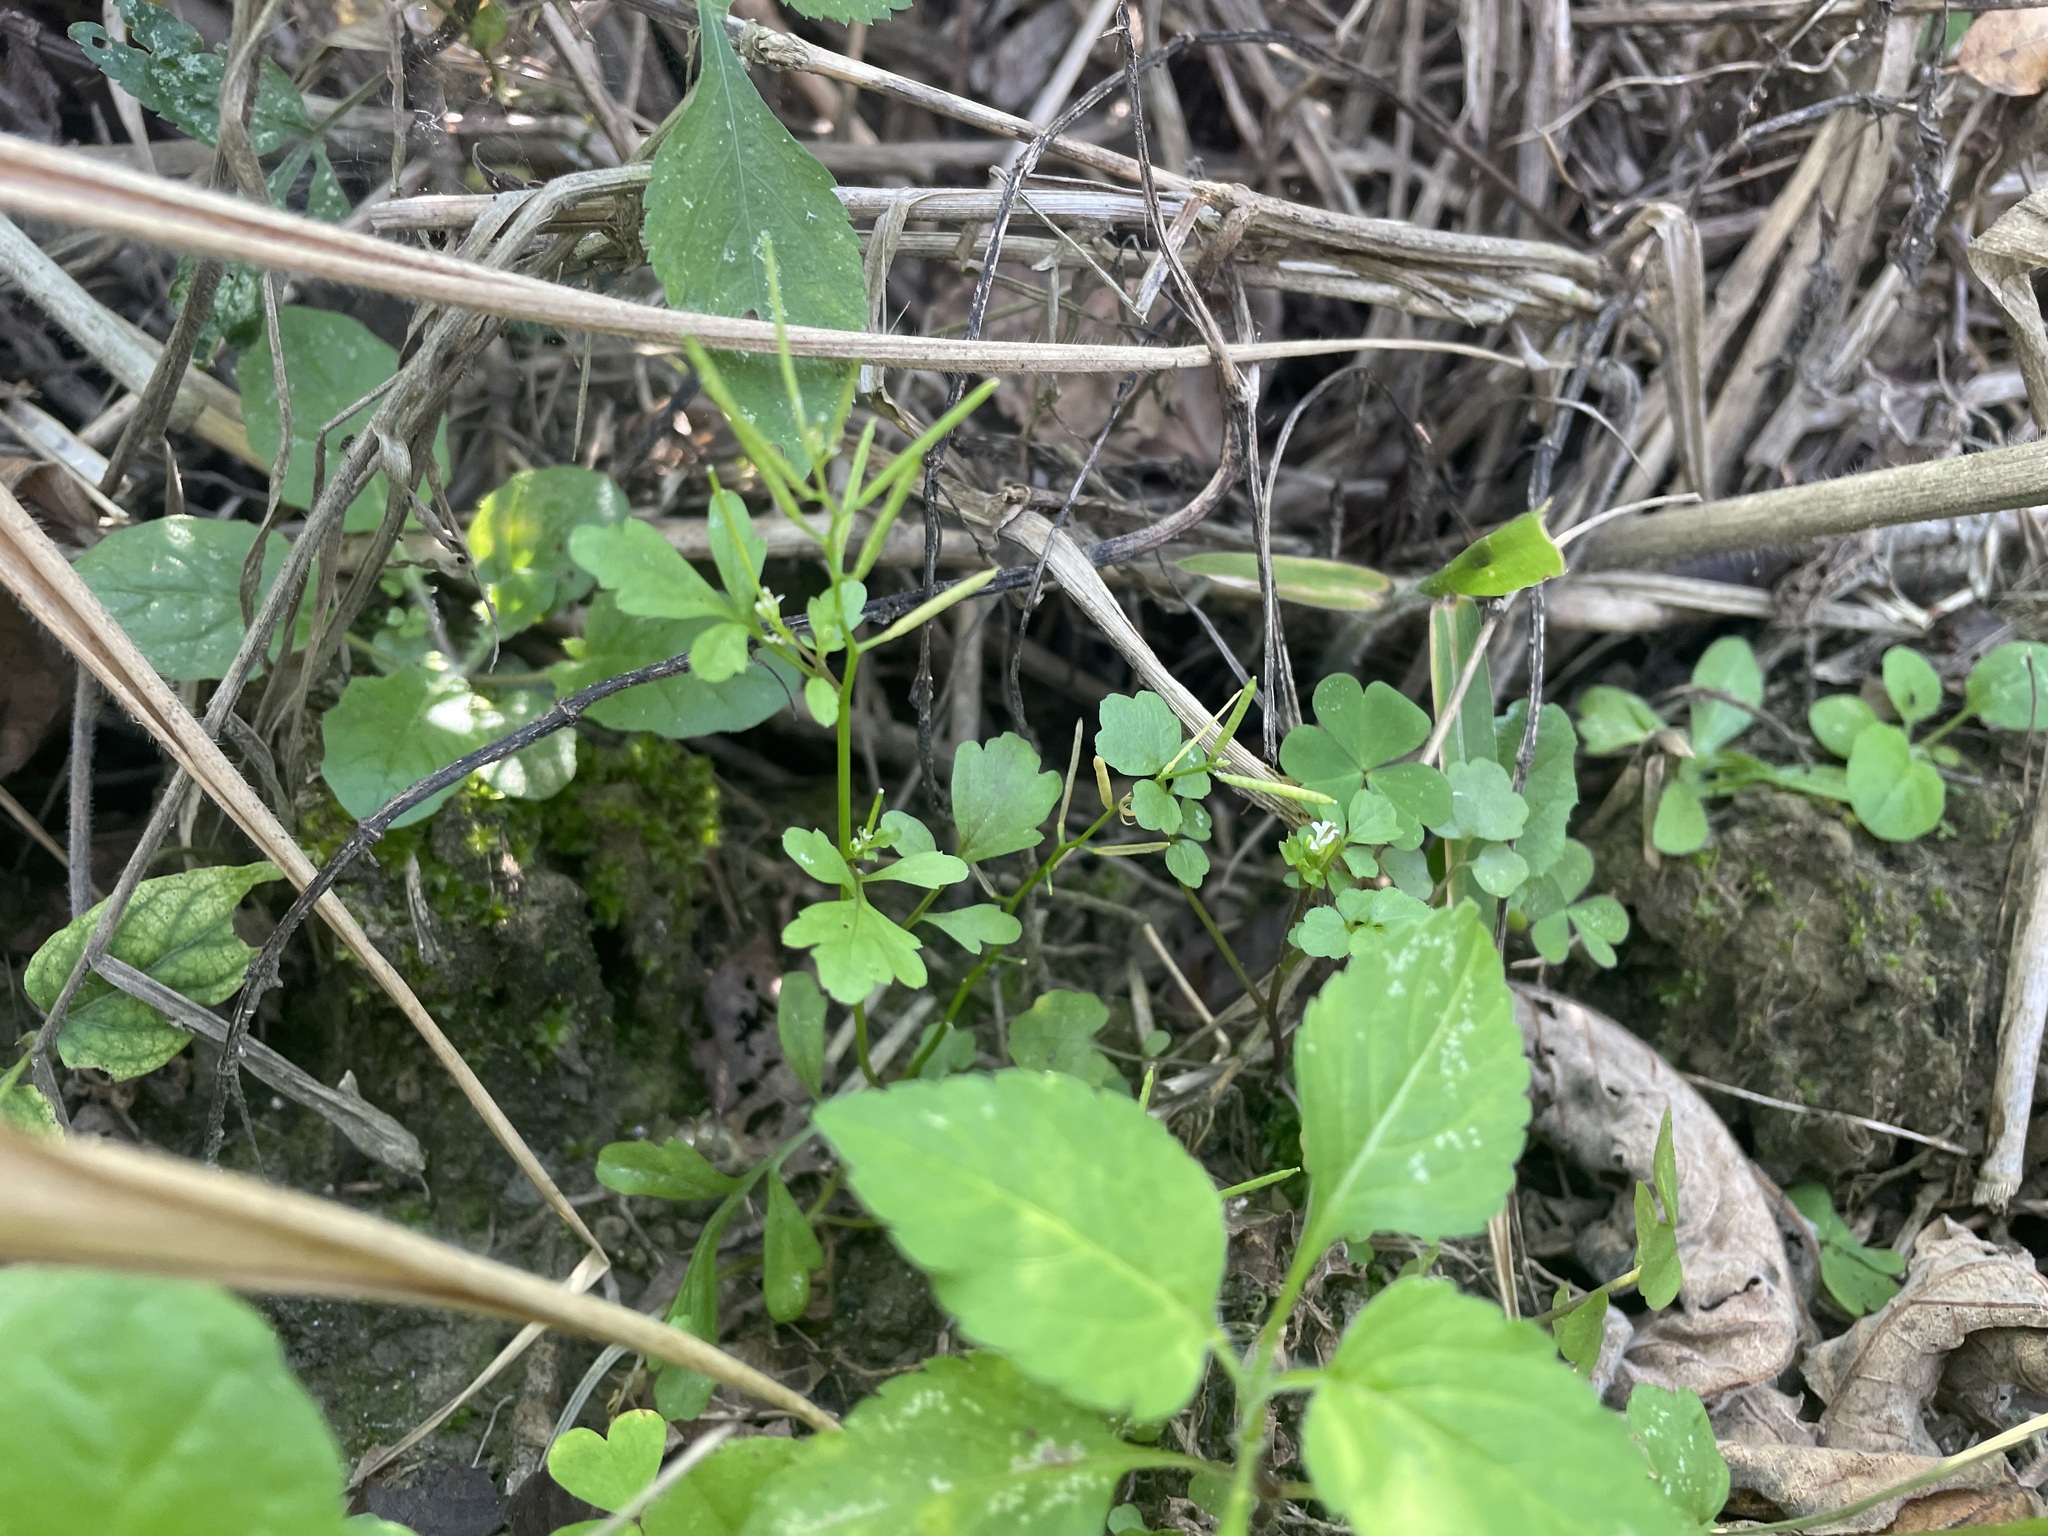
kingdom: Plantae
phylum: Tracheophyta
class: Magnoliopsida
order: Brassicales
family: Brassicaceae
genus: Cardamine
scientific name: Cardamine flexuosa
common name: Woodland bittercress
